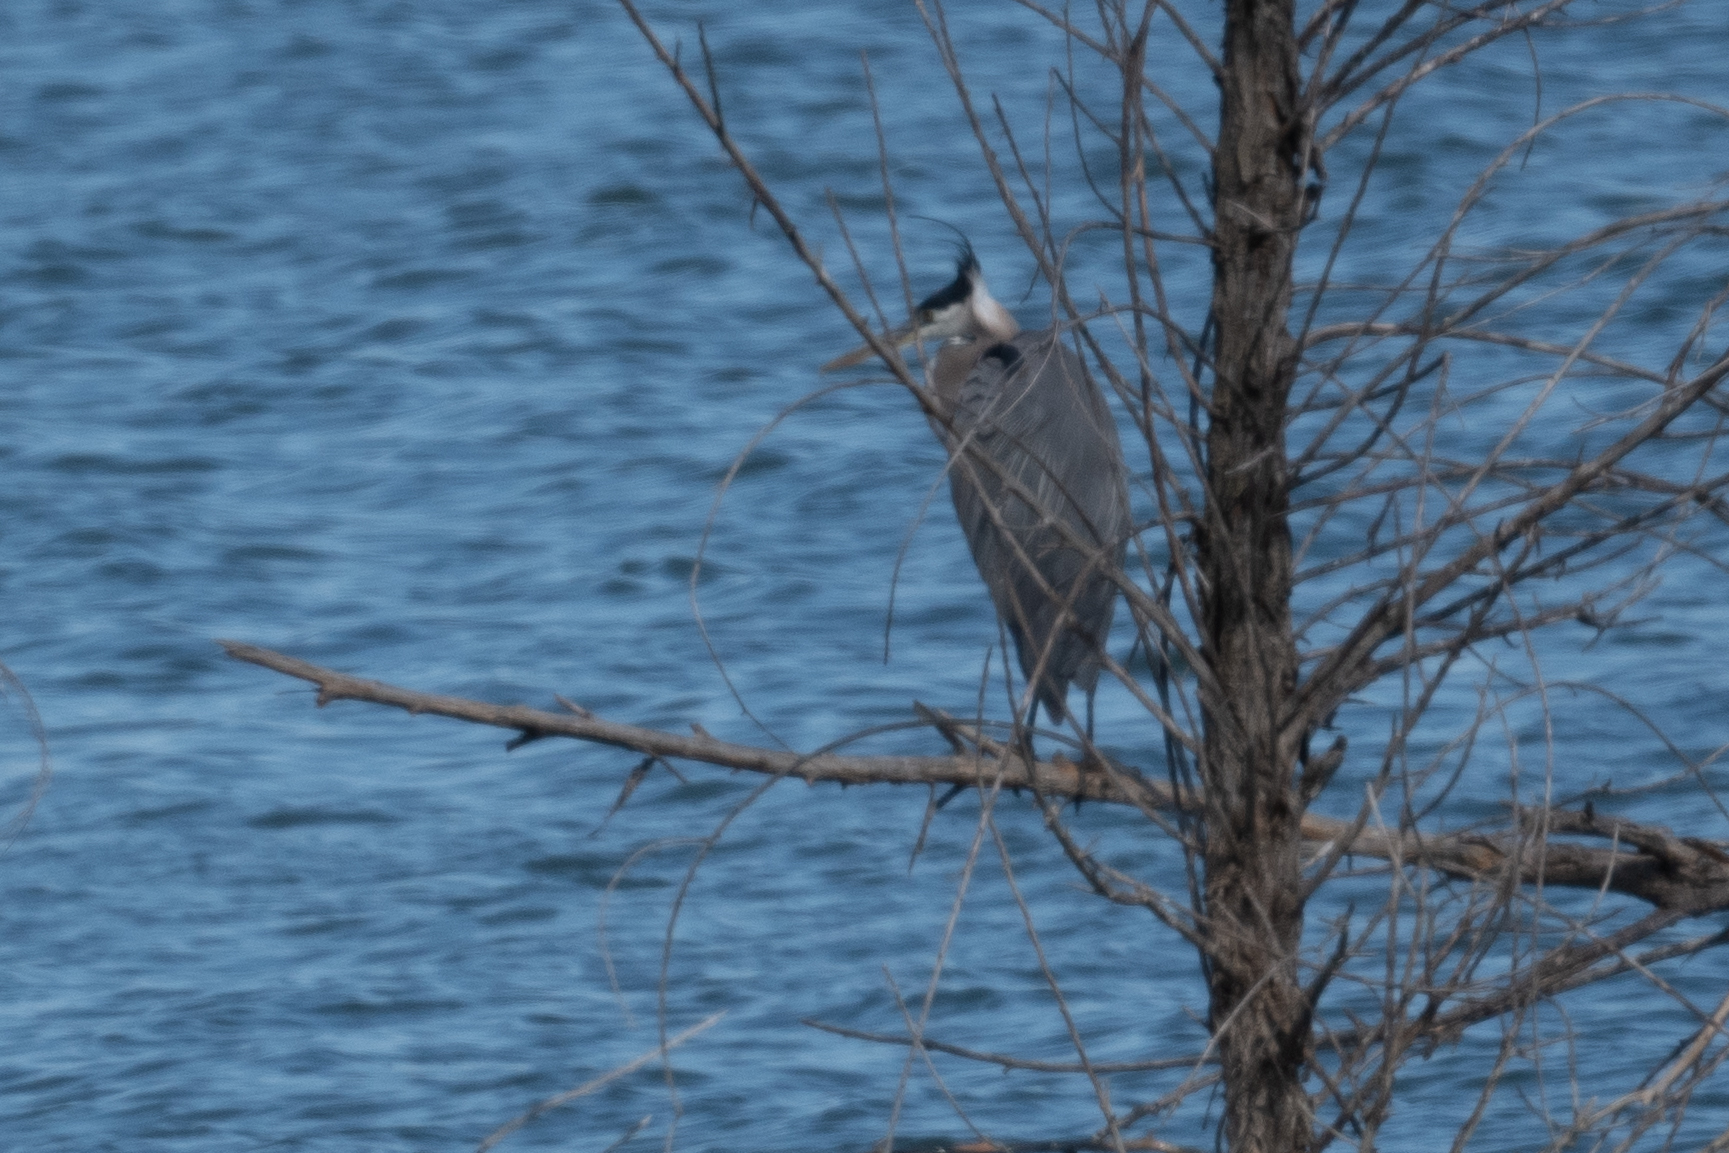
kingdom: Animalia
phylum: Chordata
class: Aves
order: Pelecaniformes
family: Ardeidae
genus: Ardea
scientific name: Ardea herodias
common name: Great blue heron
